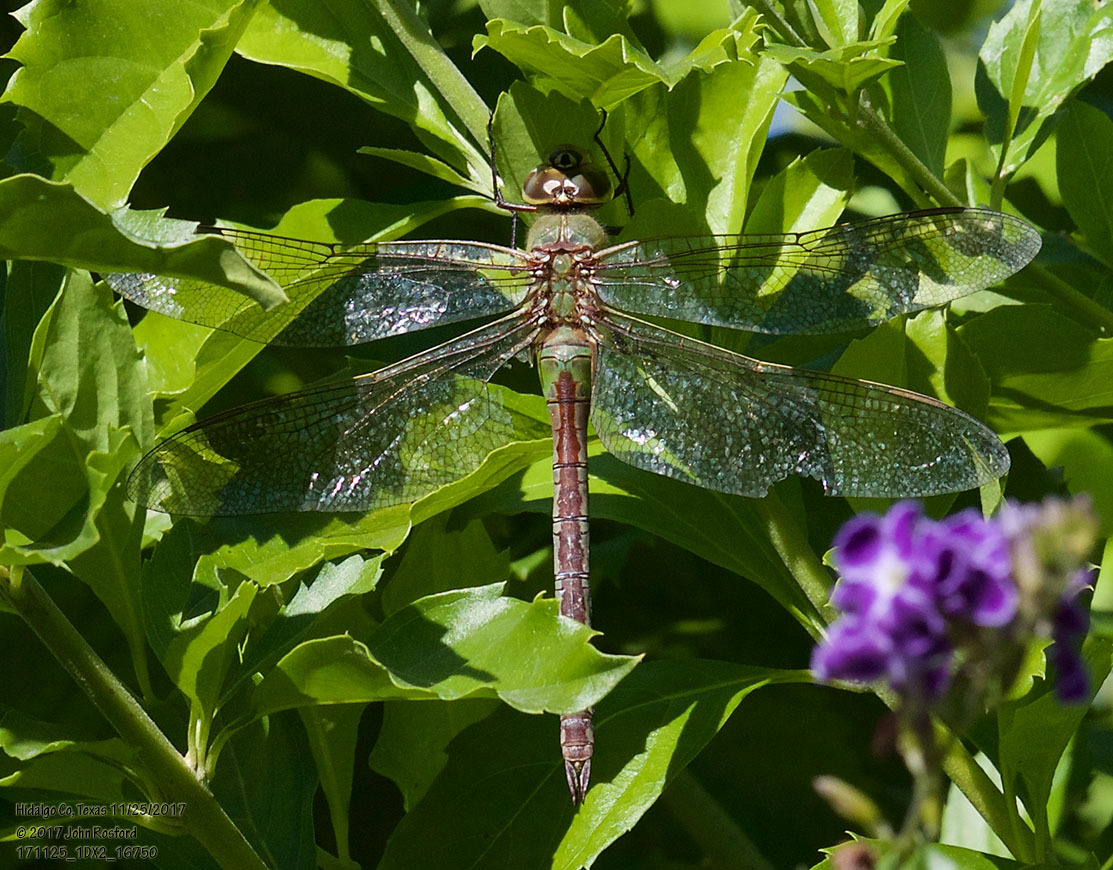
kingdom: Animalia
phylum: Arthropoda
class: Insecta
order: Odonata
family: Aeshnidae
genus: Anax
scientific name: Anax junius
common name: Common green darner
